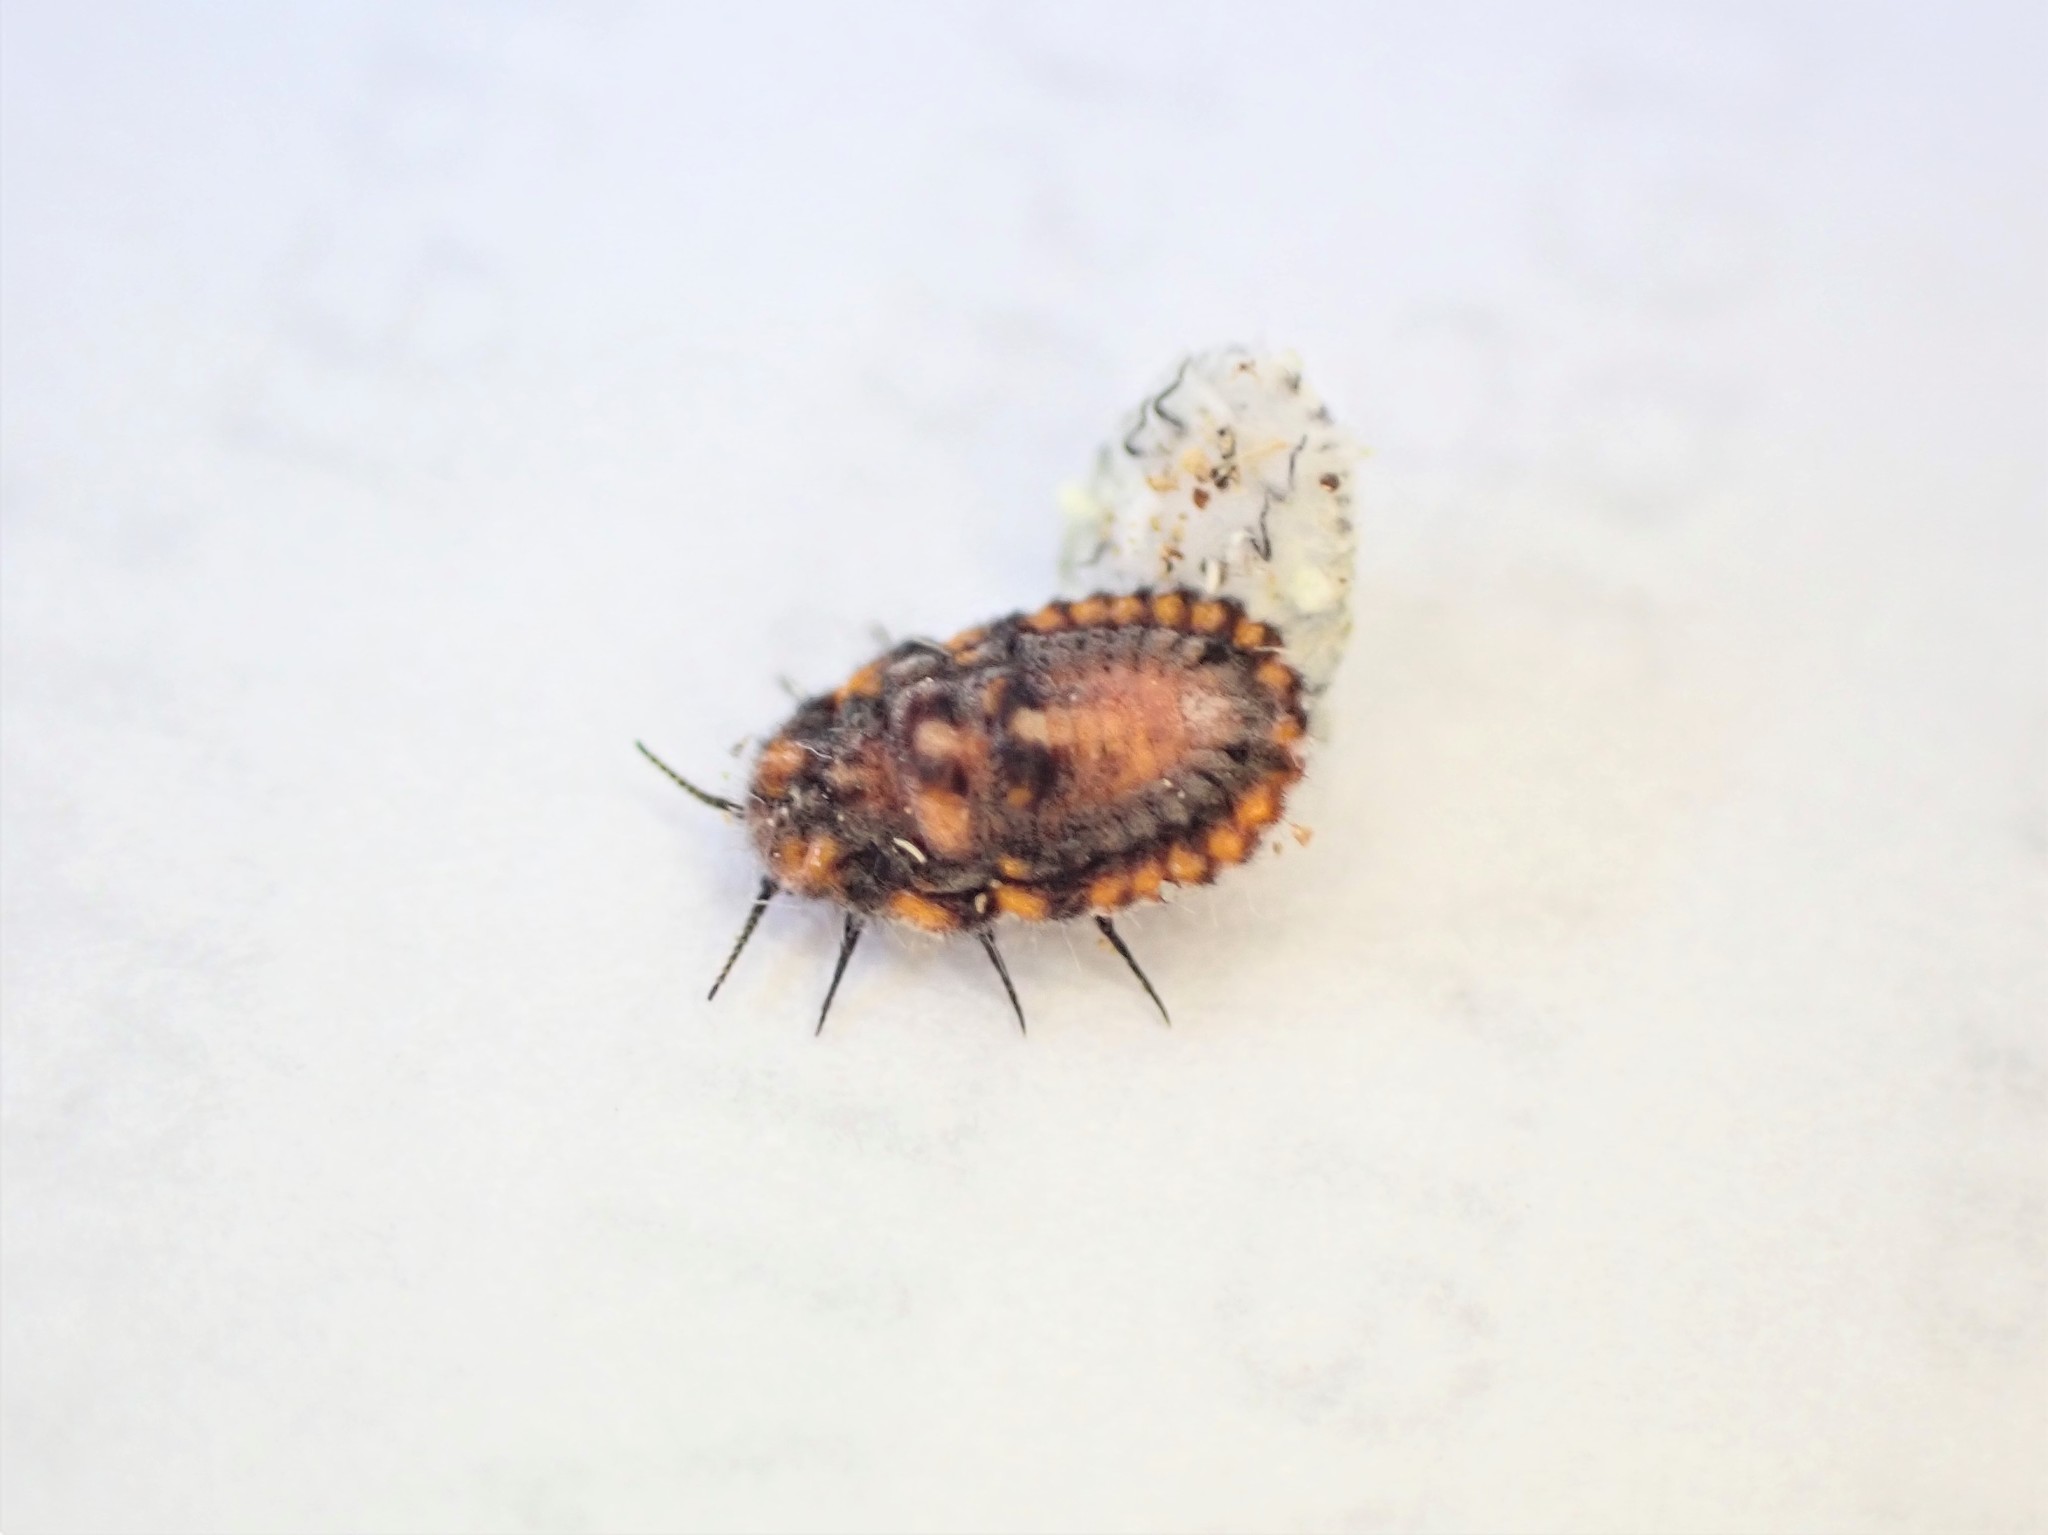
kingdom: Animalia
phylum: Arthropoda
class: Insecta
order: Hemiptera
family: Margarodidae
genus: Icerya
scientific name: Icerya purchasi
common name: Cottony cushion scale
